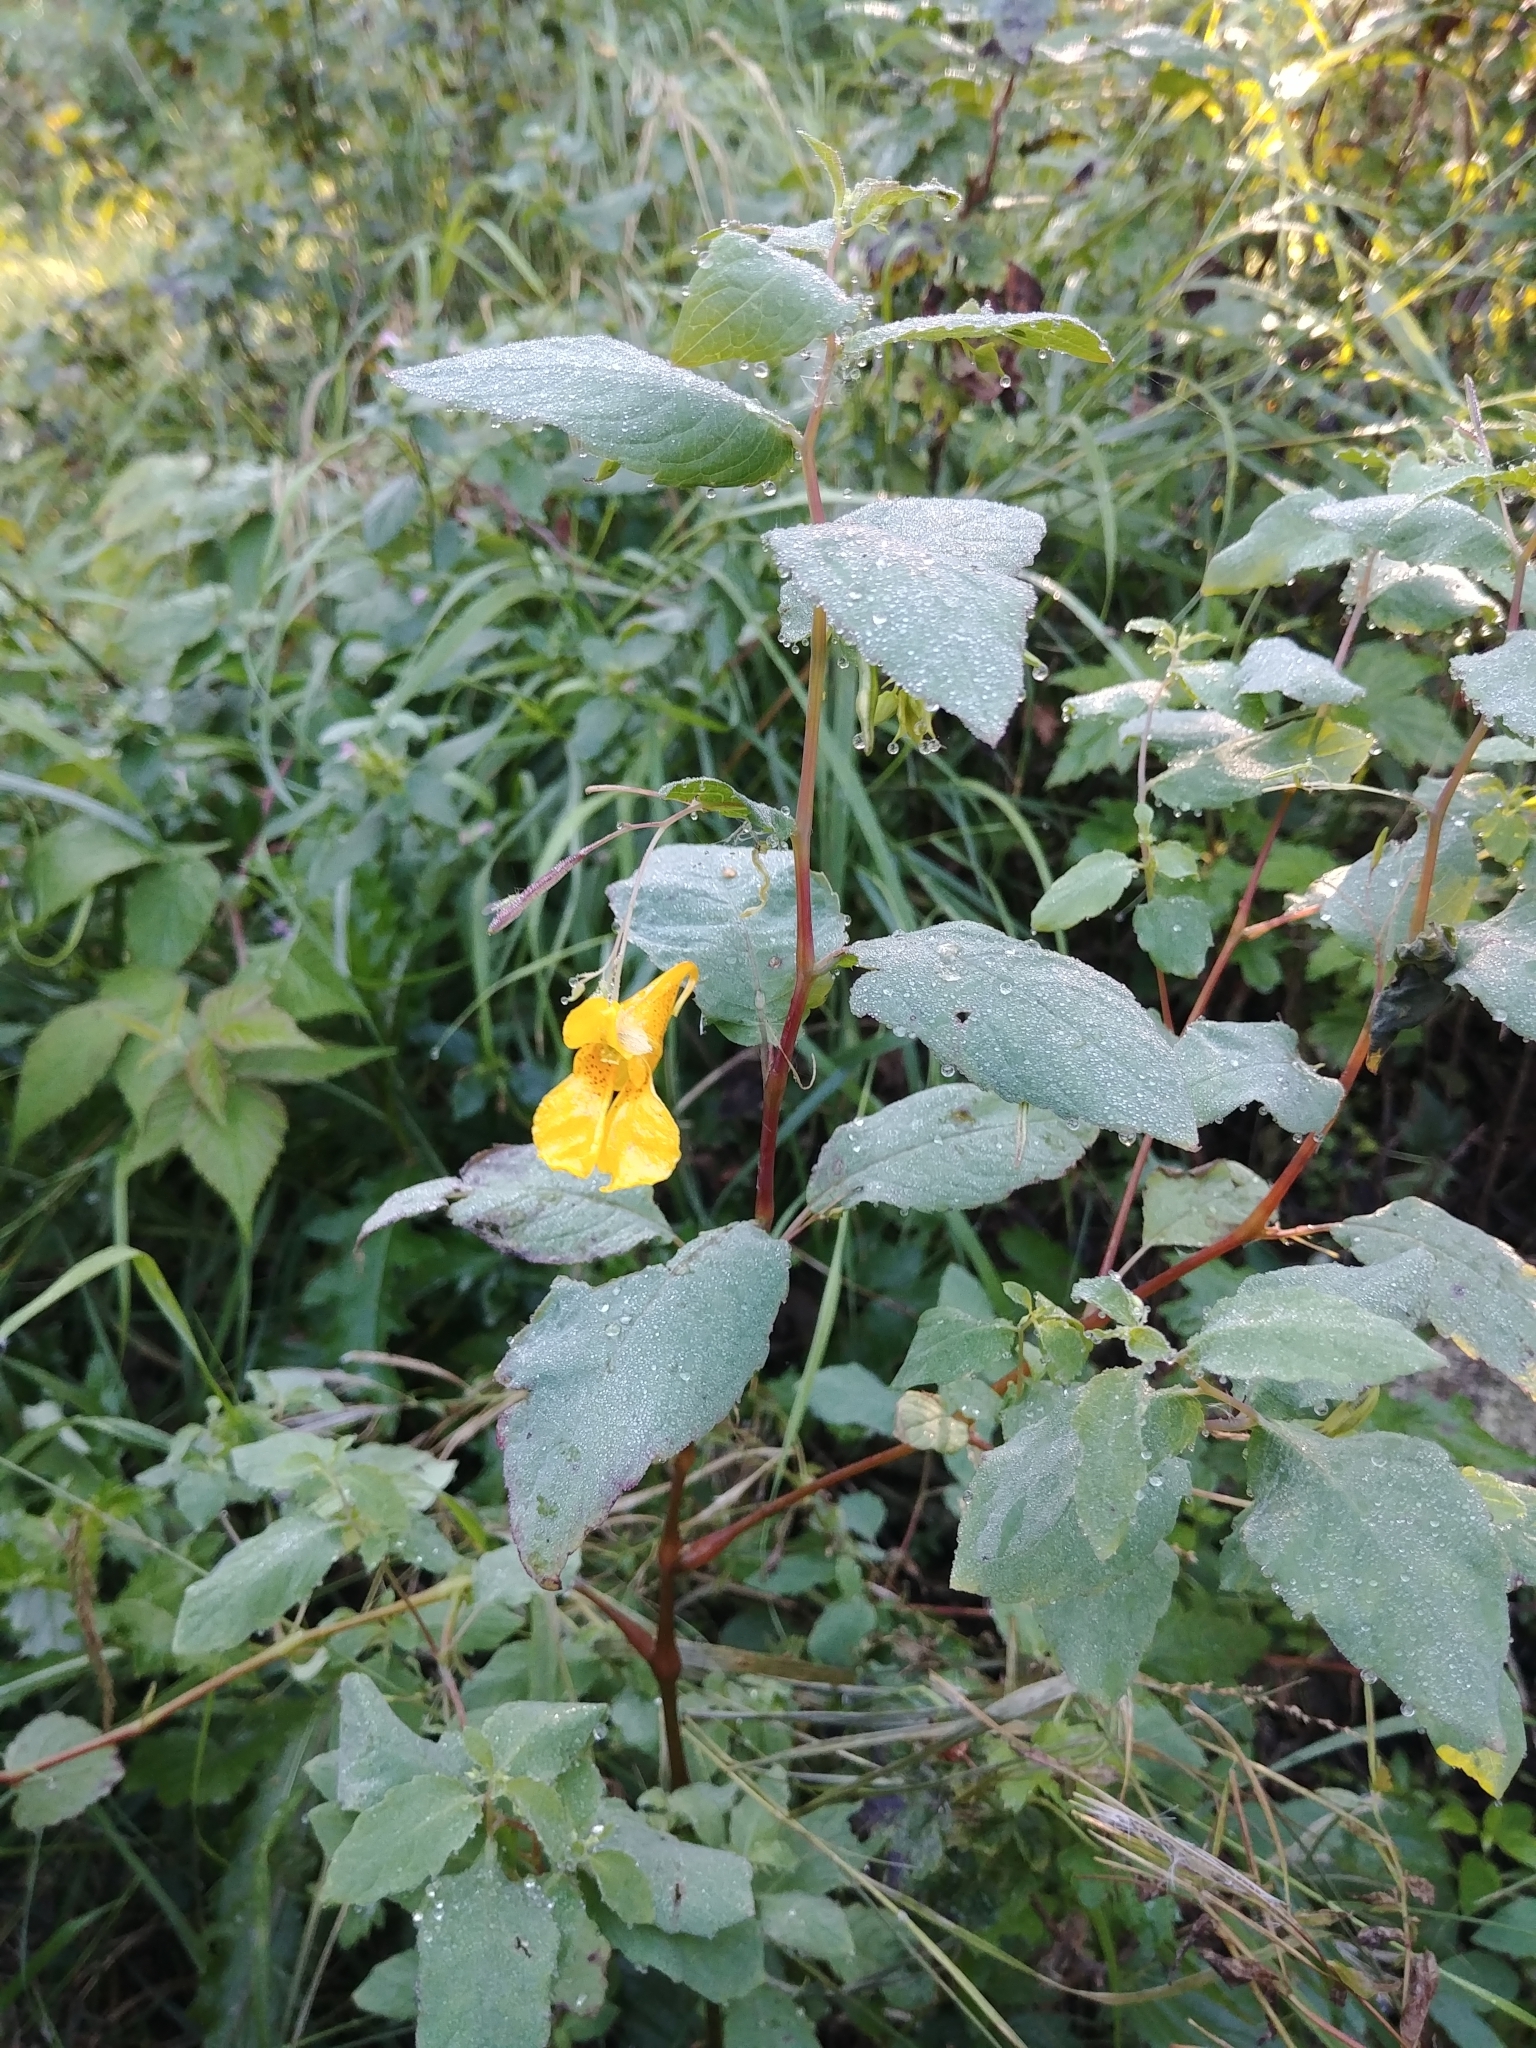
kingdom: Plantae
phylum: Tracheophyta
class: Magnoliopsida
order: Ericales
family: Balsaminaceae
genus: Impatiens
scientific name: Impatiens noli-tangere
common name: Touch-me-not balsam
